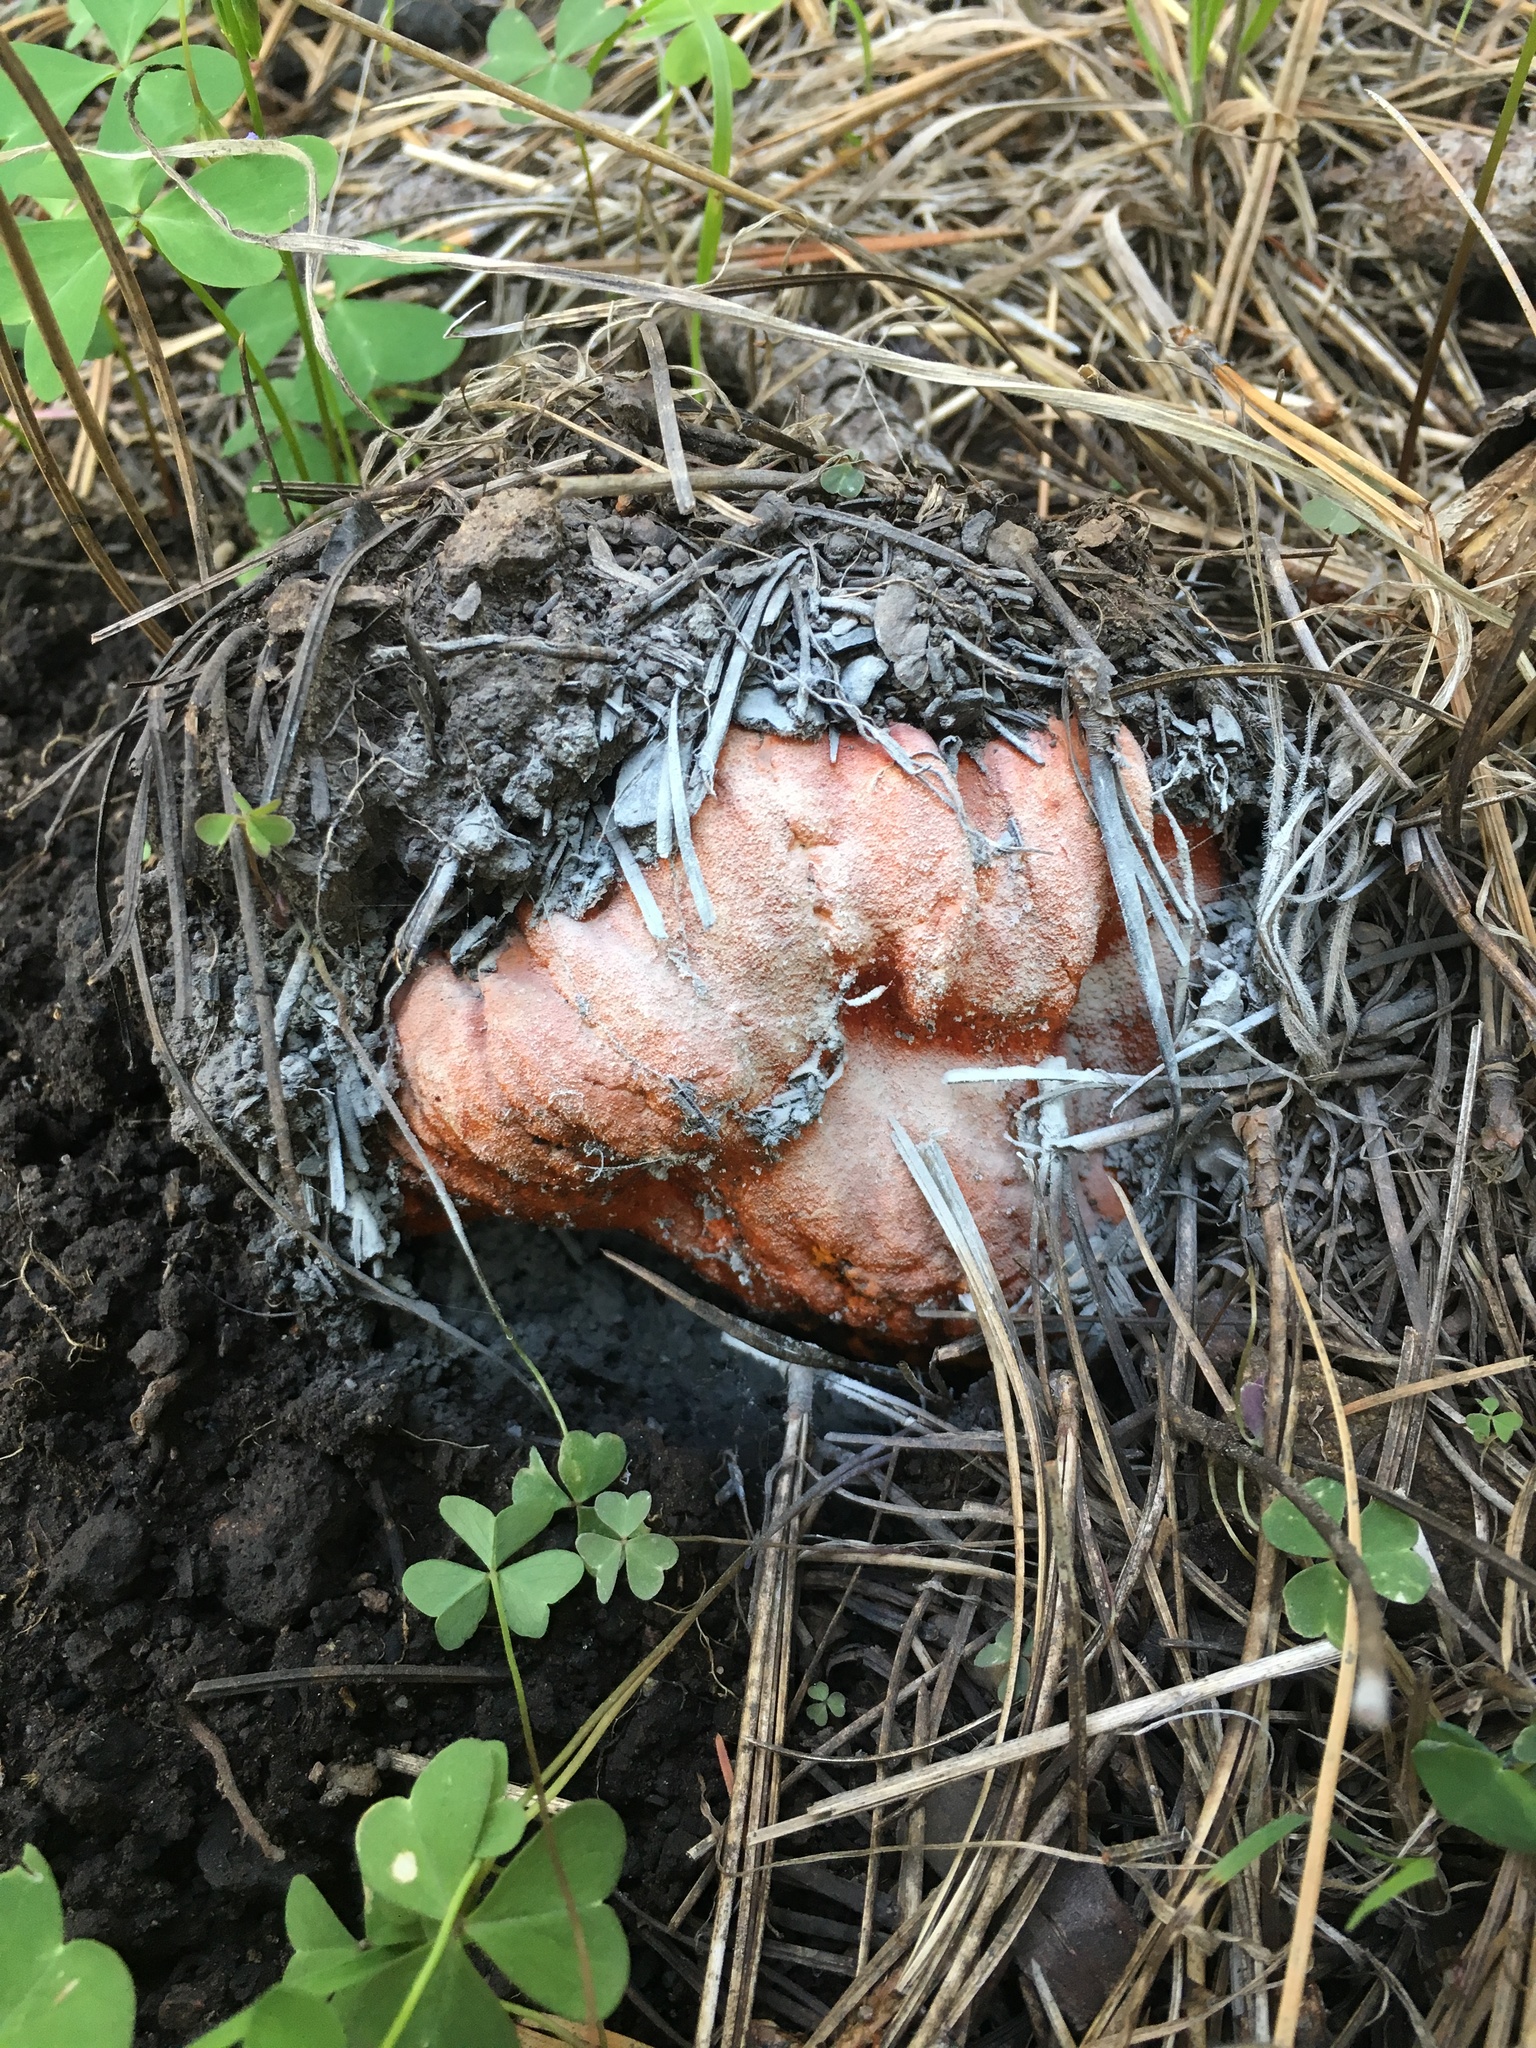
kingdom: Fungi
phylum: Ascomycota
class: Sordariomycetes
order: Hypocreales
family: Hypocreaceae
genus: Hypomyces
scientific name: Hypomyces lactifluorum
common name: Lobster mushroom
